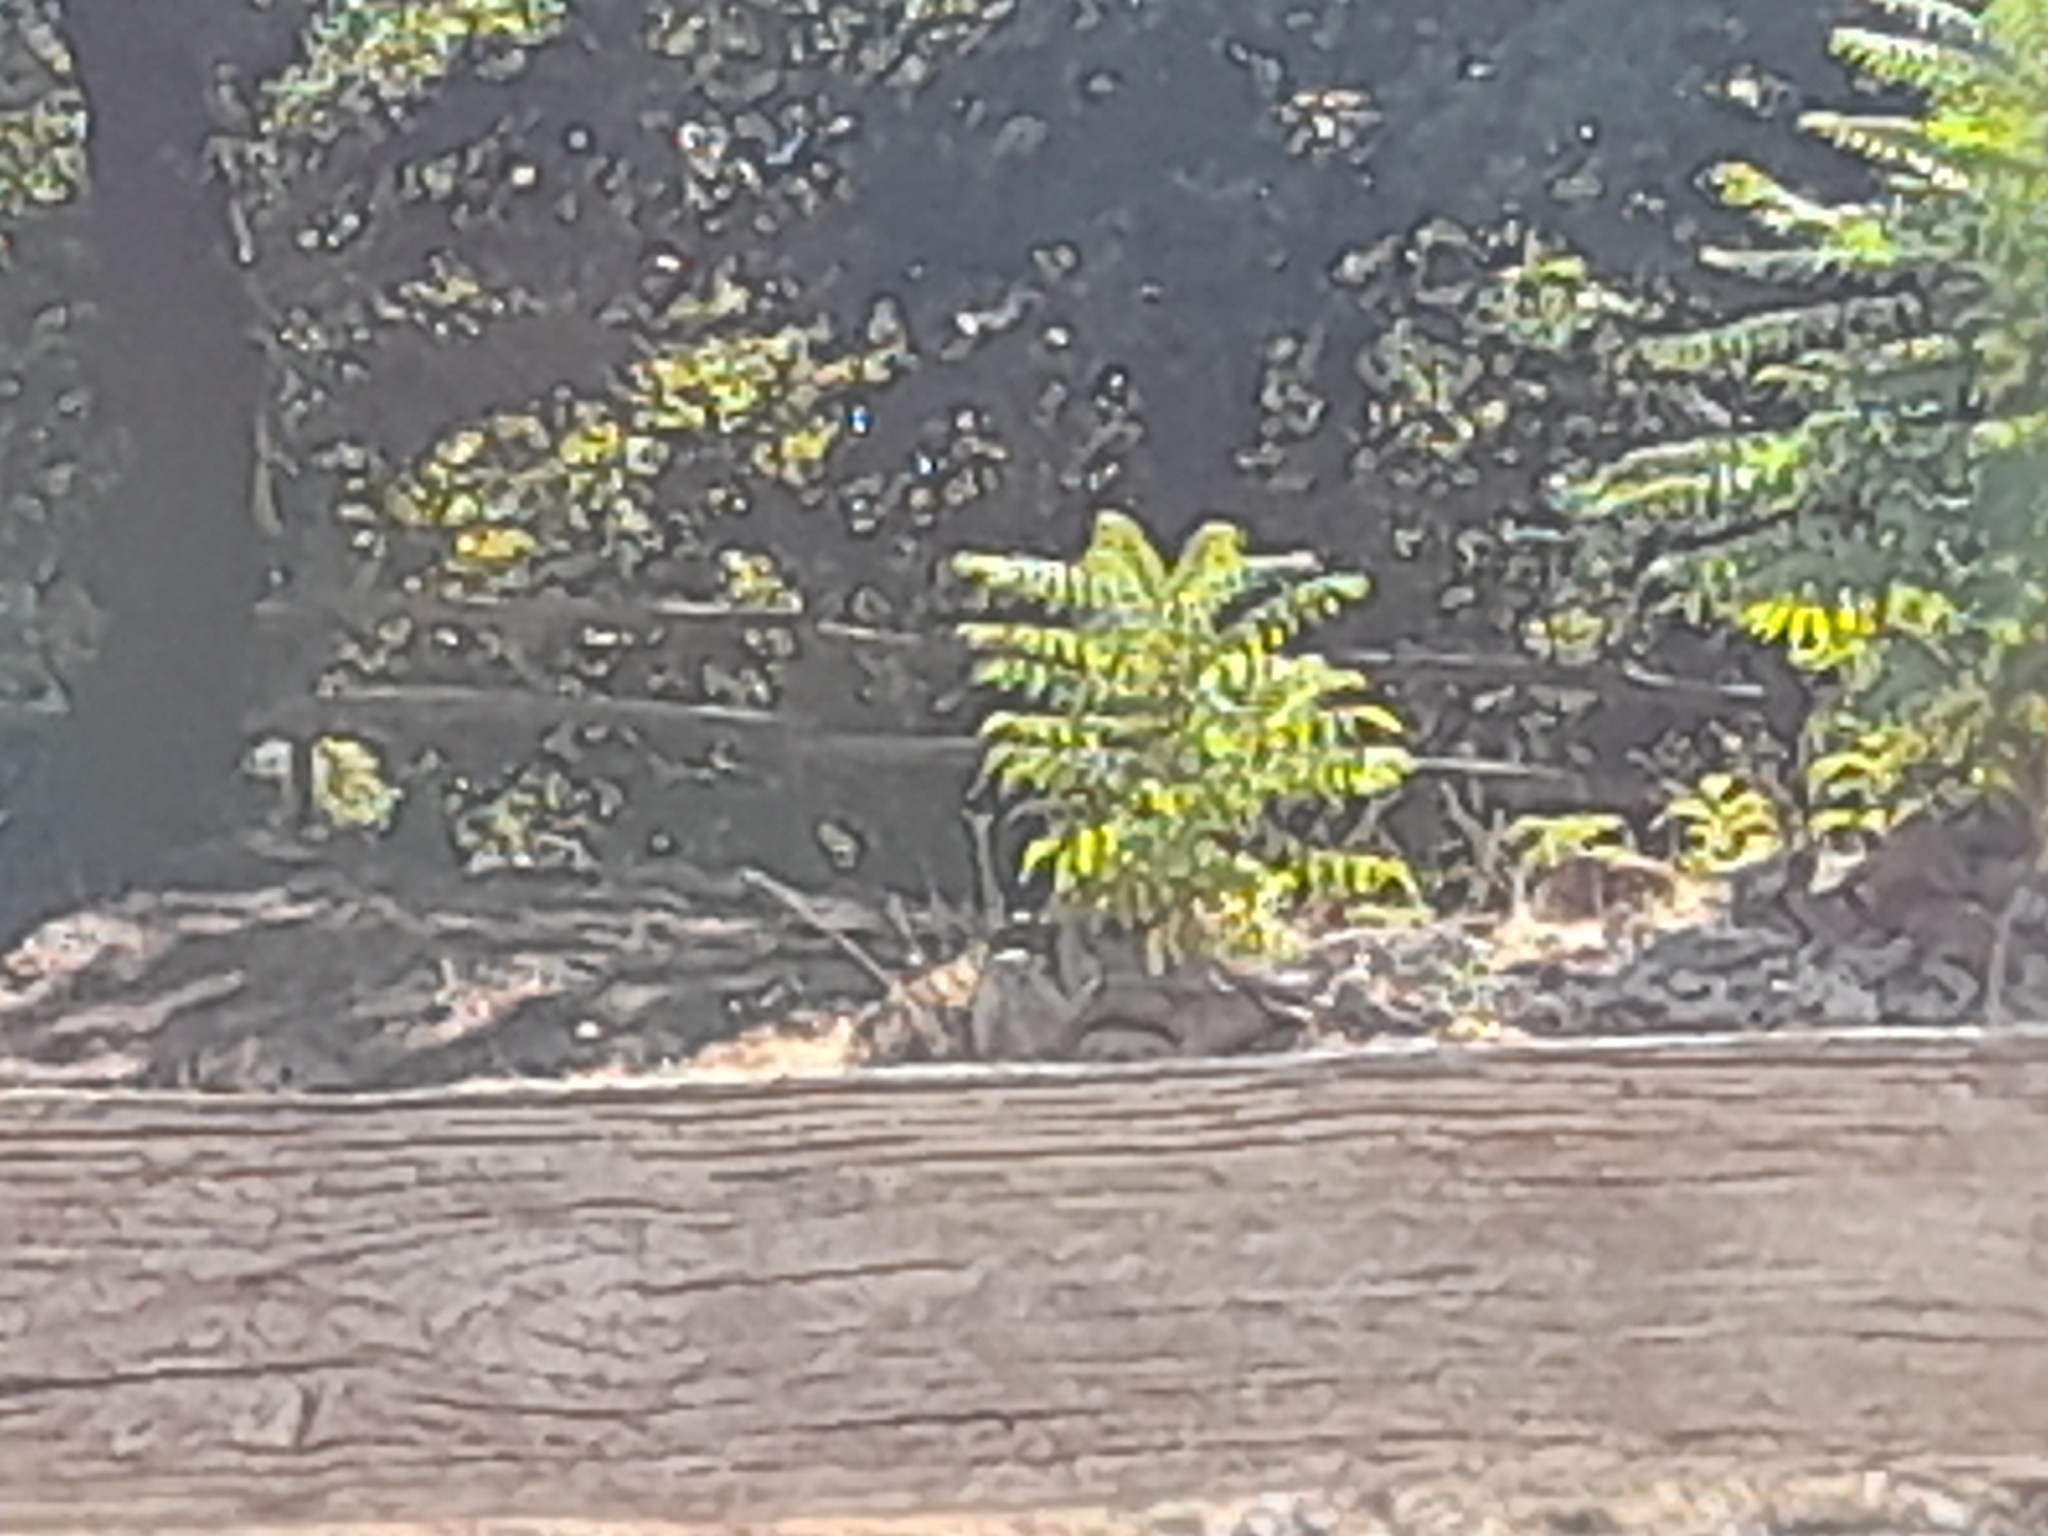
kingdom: Plantae
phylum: Tracheophyta
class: Magnoliopsida
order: Sapindales
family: Simaroubaceae
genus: Ailanthus
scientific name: Ailanthus altissima
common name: Tree-of-heaven
